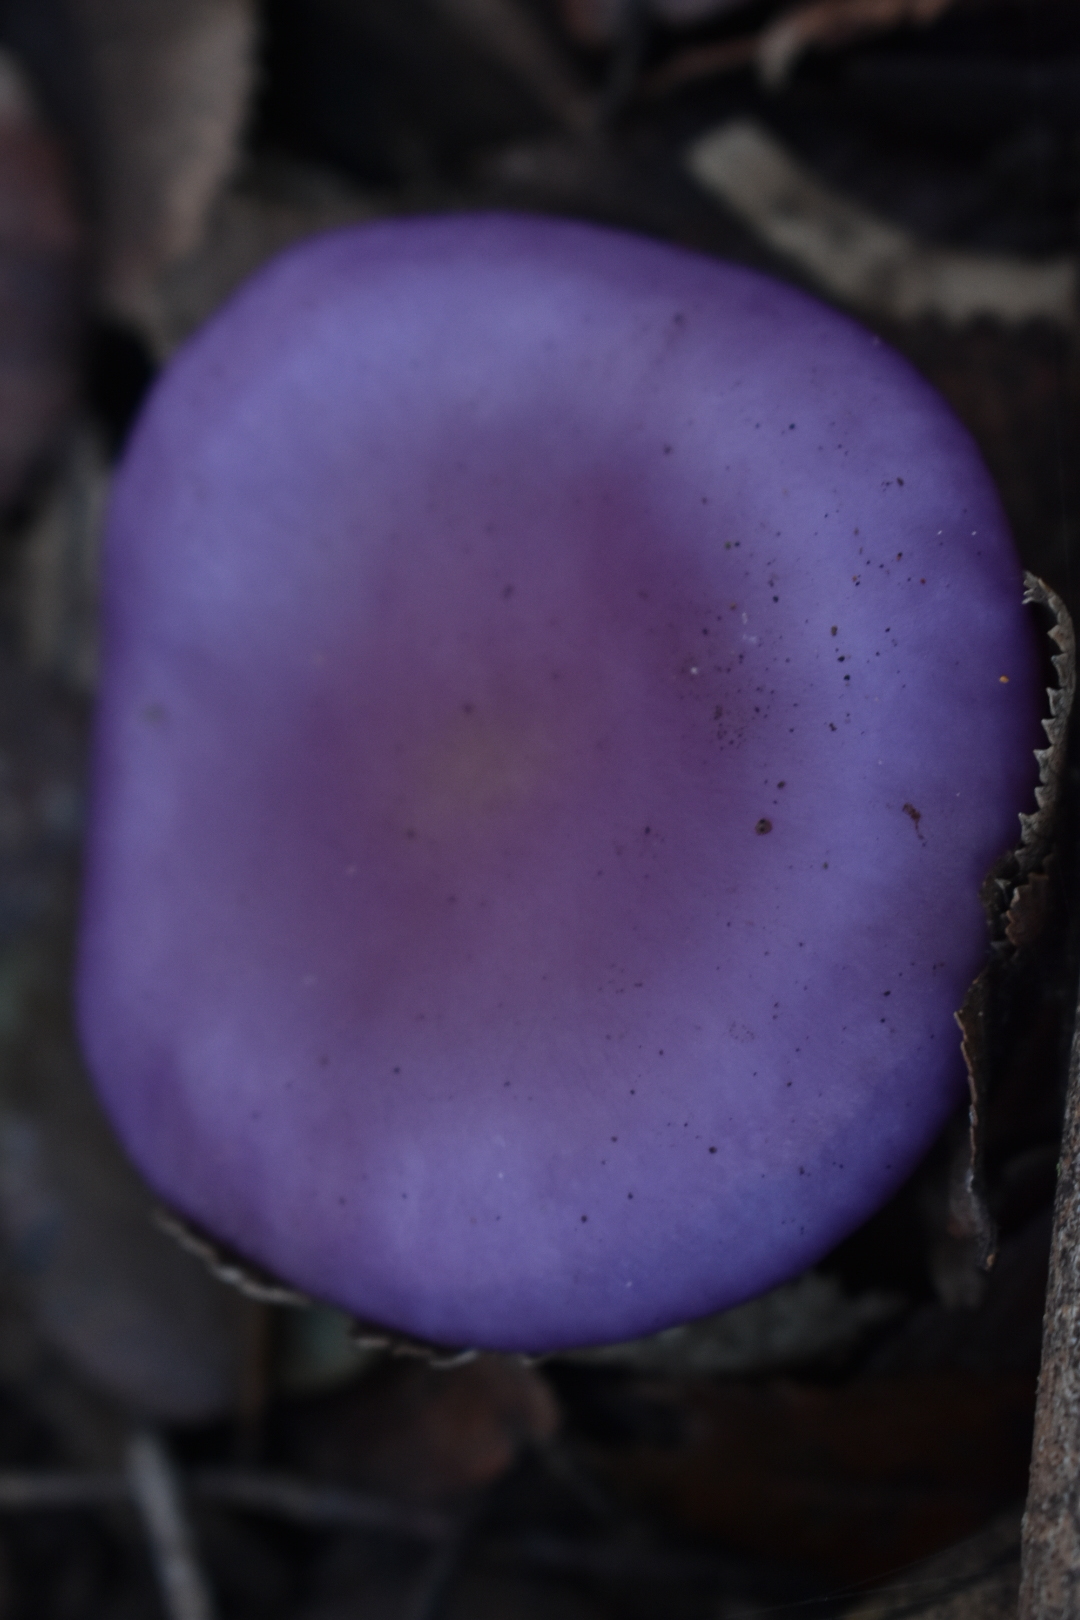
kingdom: Fungi
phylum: Basidiomycota
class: Agaricomycetes
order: Agaricales
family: Tricholomataceae
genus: Collybia
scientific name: Collybia
